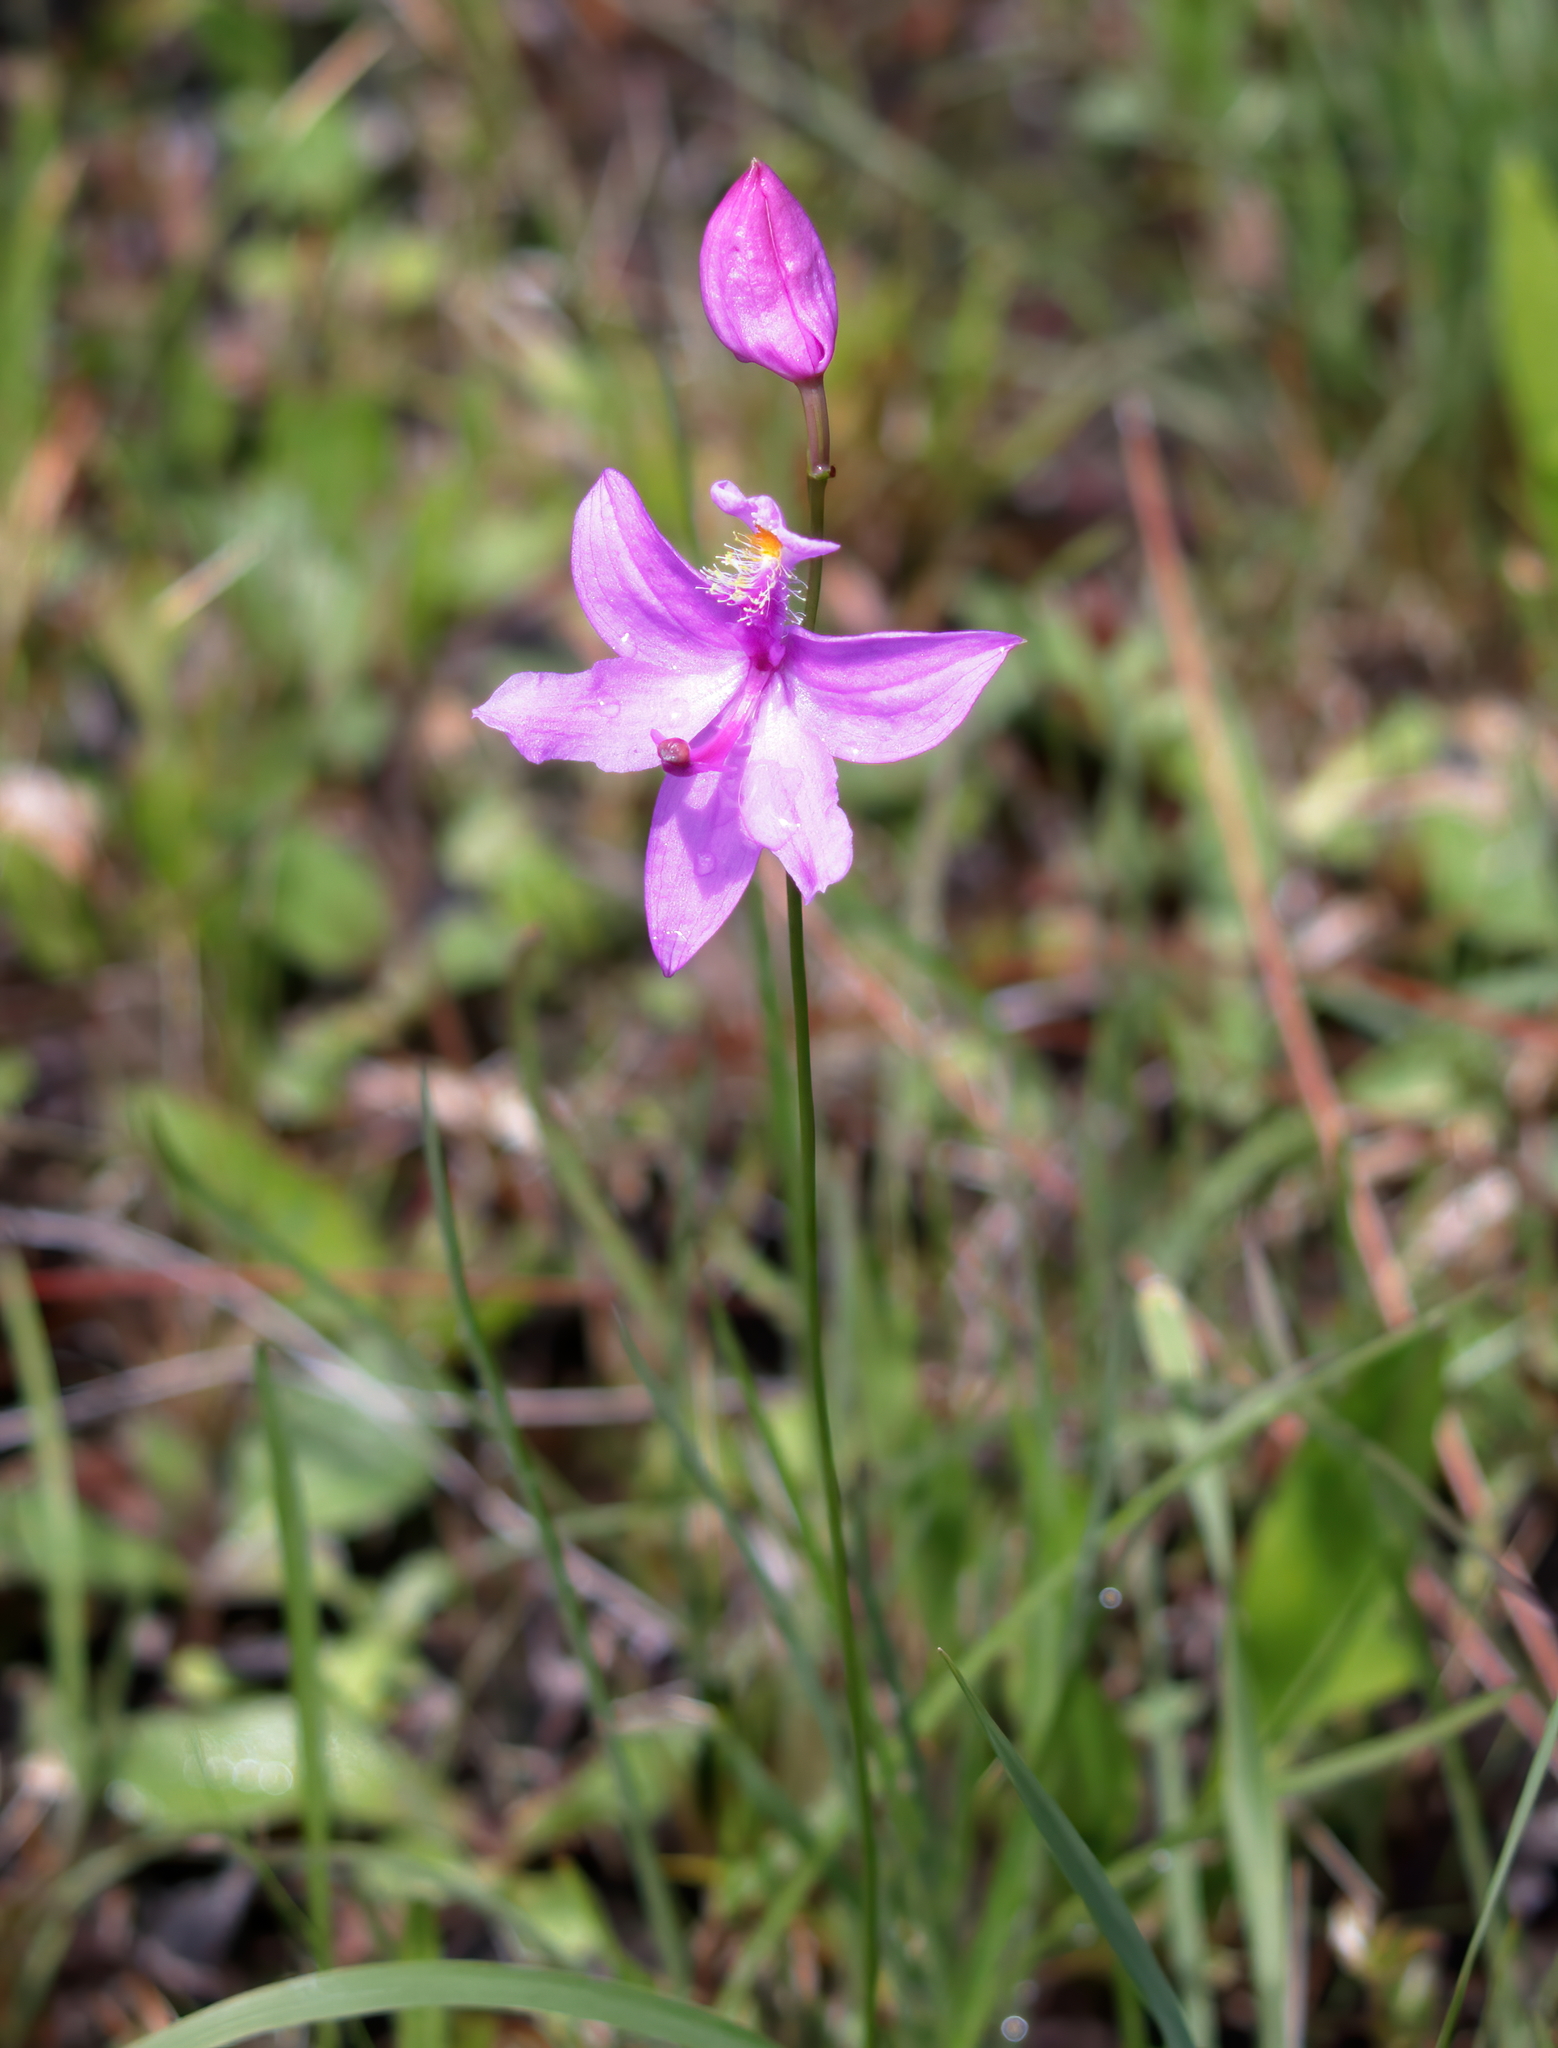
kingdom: Plantae
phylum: Tracheophyta
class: Liliopsida
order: Asparagales
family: Orchidaceae
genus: Calopogon
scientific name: Calopogon tuberosus
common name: Grass-pink
